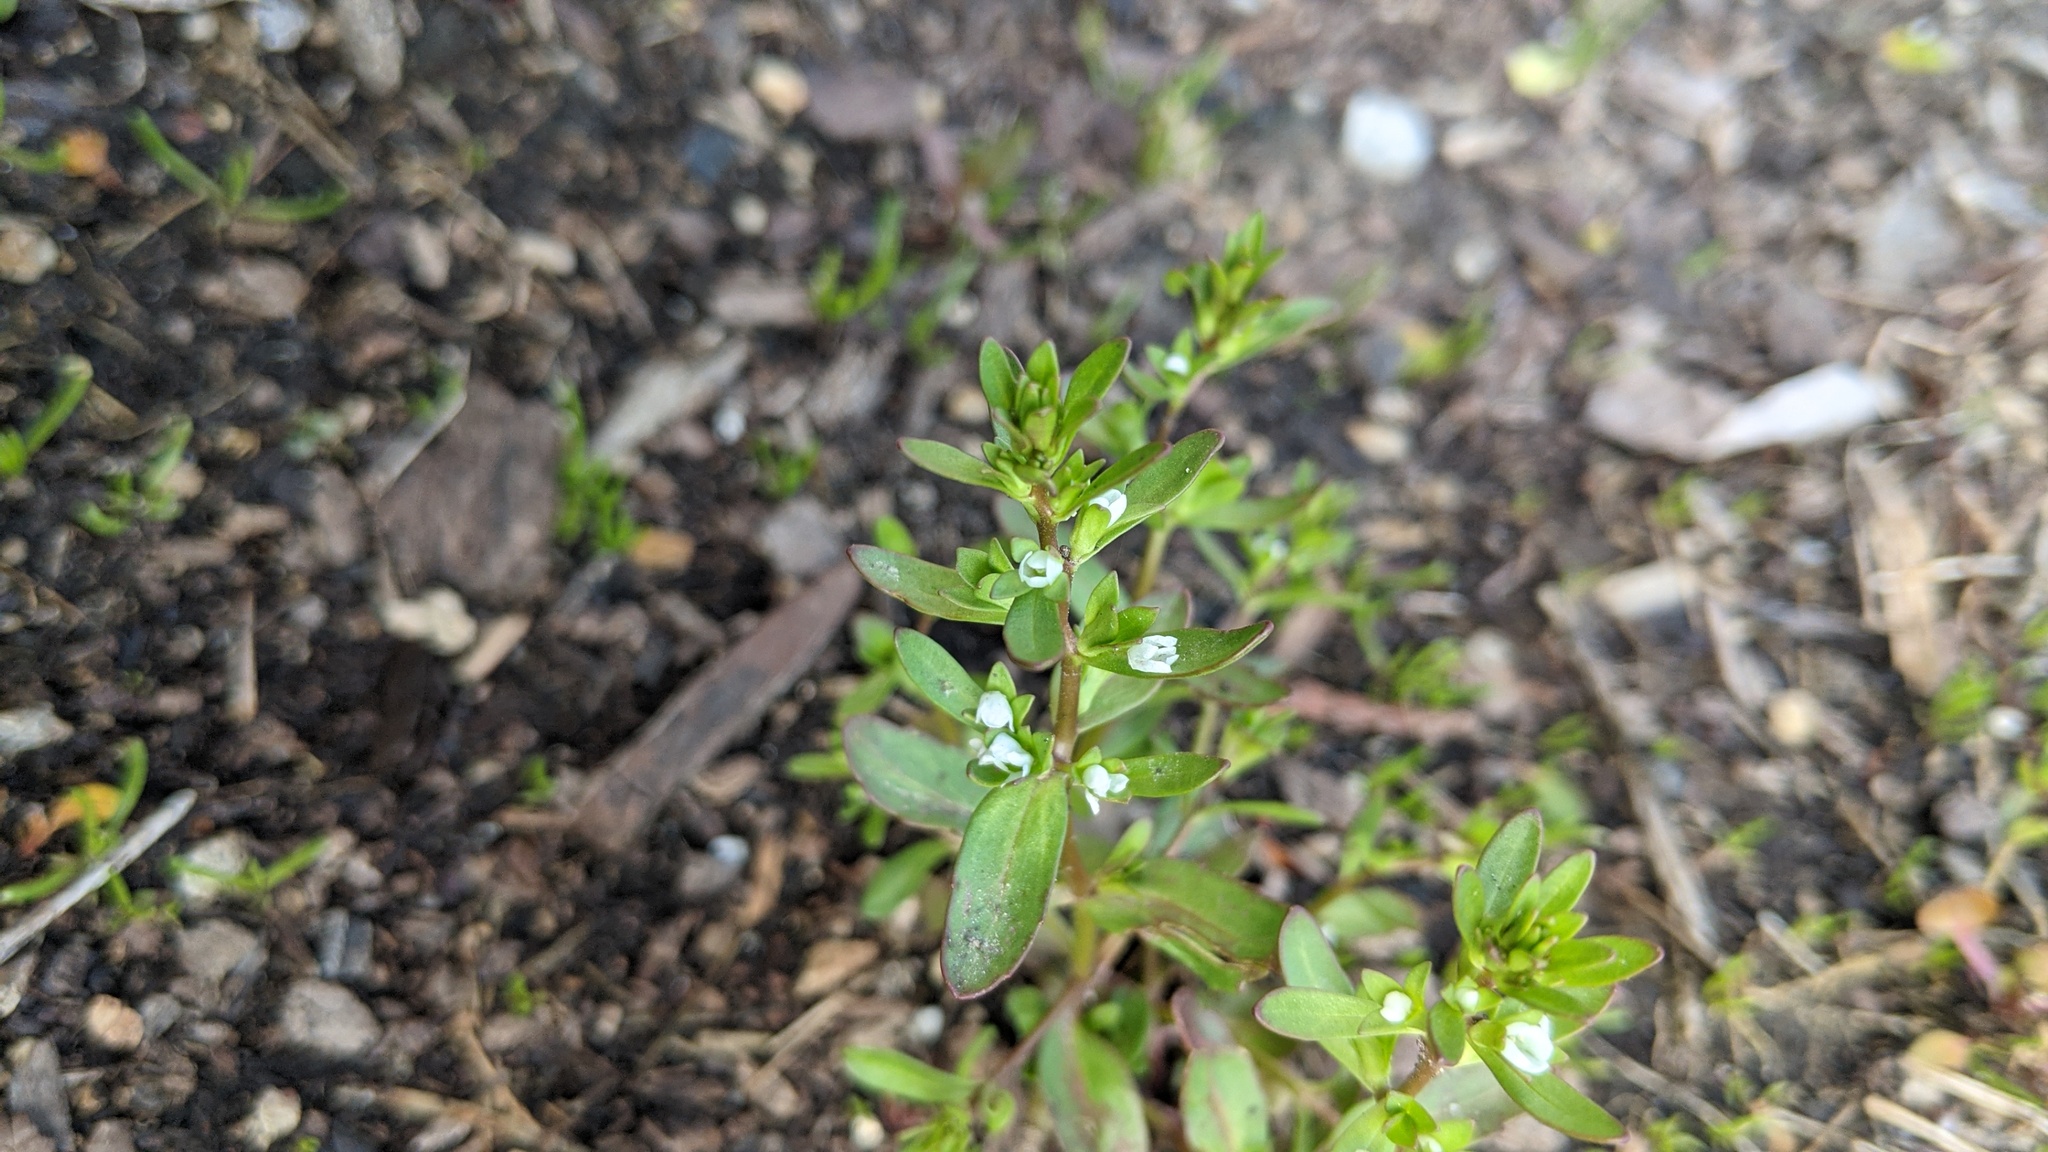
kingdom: Plantae
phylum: Tracheophyta
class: Magnoliopsida
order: Lamiales
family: Plantaginaceae
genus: Veronica
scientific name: Veronica peregrina
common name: Neckweed
